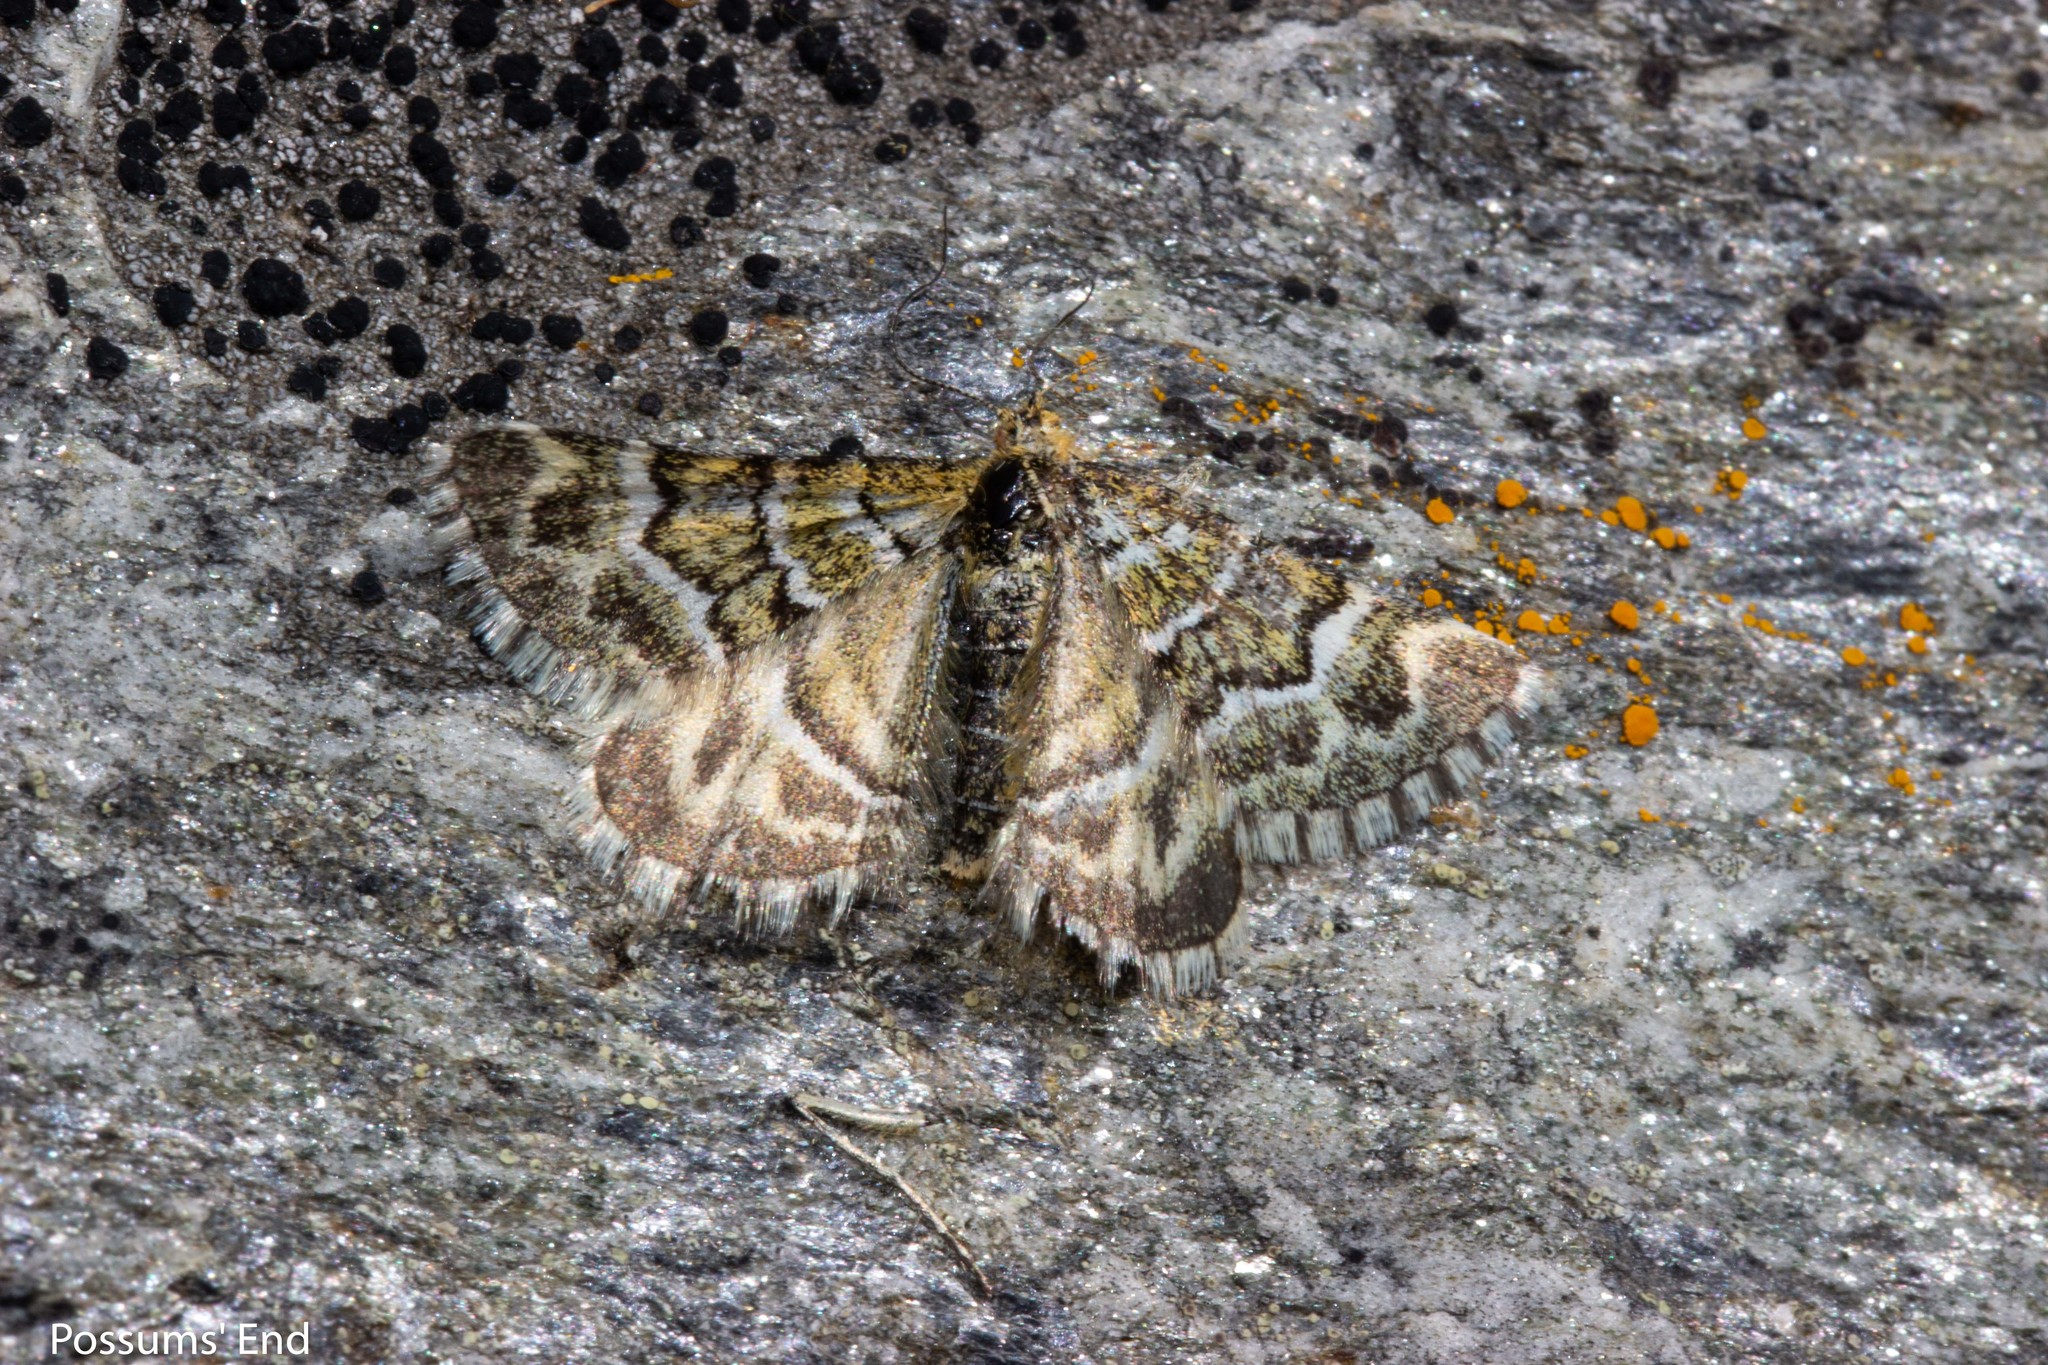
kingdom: Animalia
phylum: Arthropoda
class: Insecta
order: Lepidoptera
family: Geometridae
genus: Notoreas
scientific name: Notoreas paradelpha
